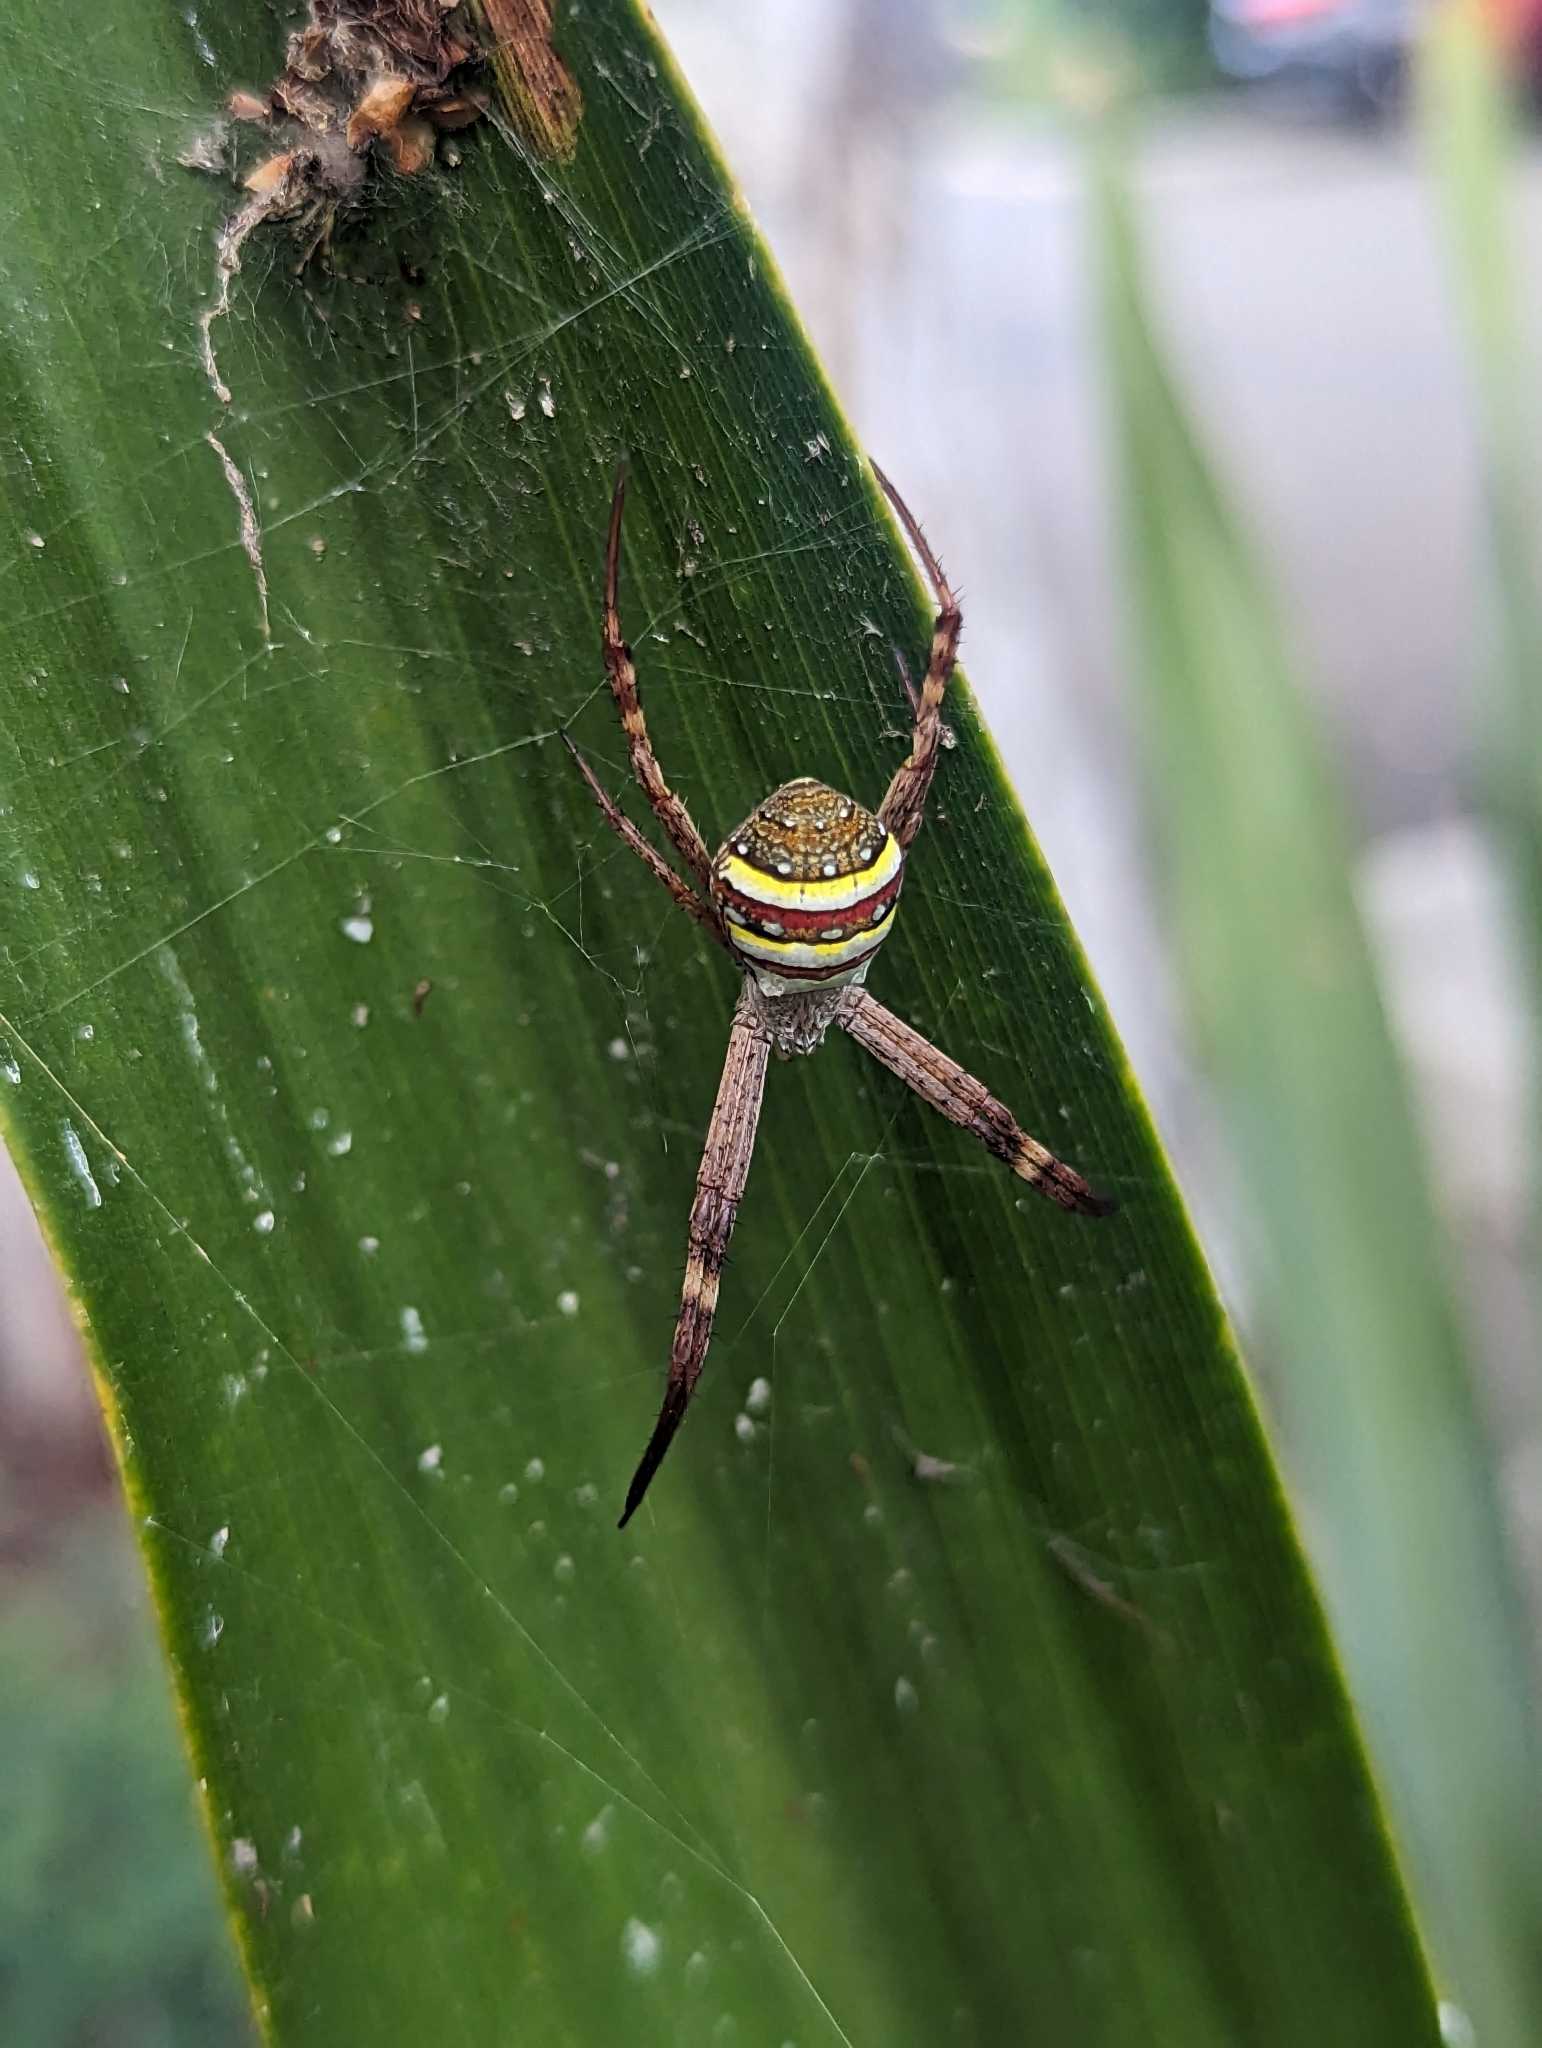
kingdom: Animalia
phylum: Arthropoda
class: Arachnida
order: Araneae
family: Araneidae
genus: Argiope
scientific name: Argiope keyserlingi
